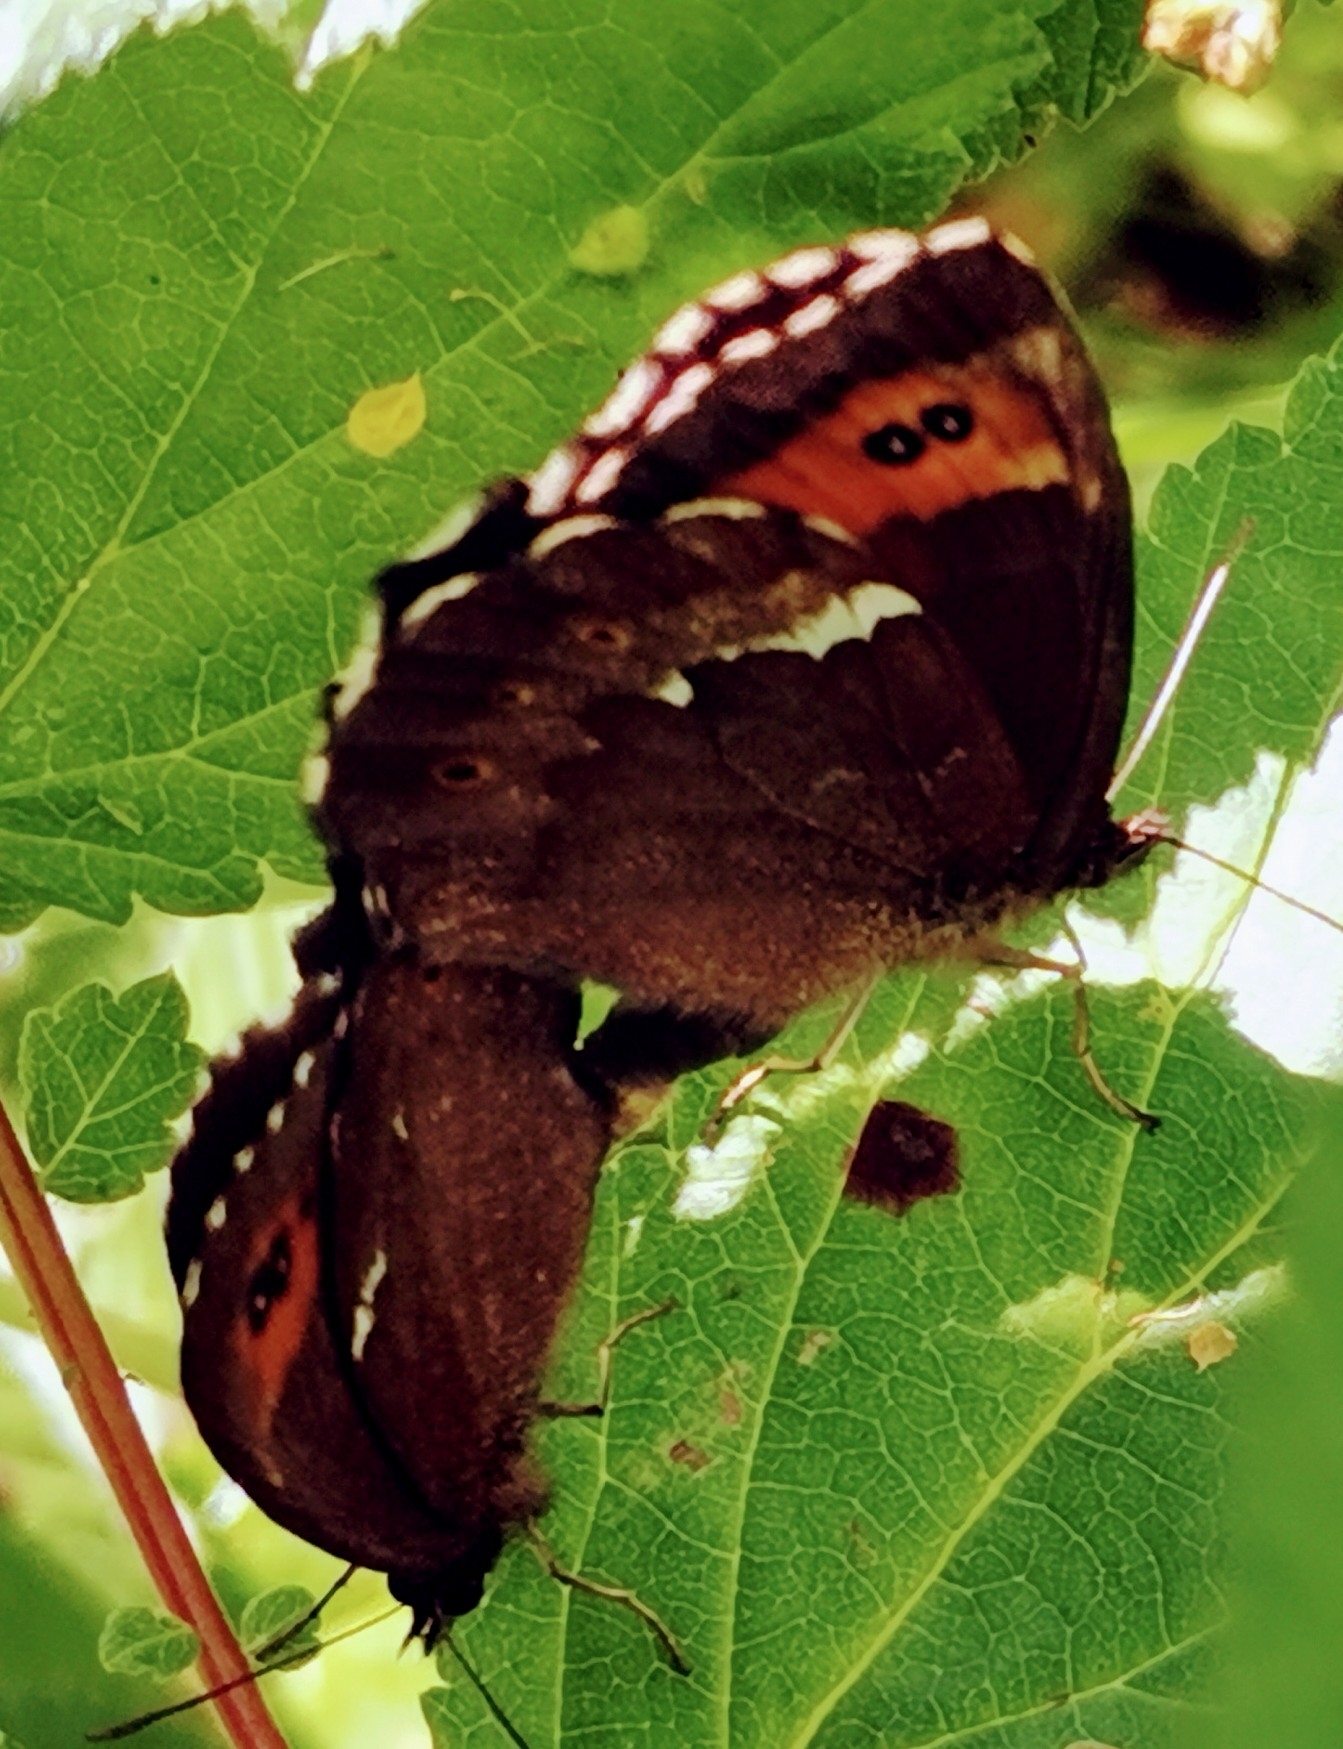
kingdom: Animalia
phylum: Arthropoda
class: Insecta
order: Lepidoptera
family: Nymphalidae
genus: Erebia
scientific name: Erebia ligea
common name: Arran brown
